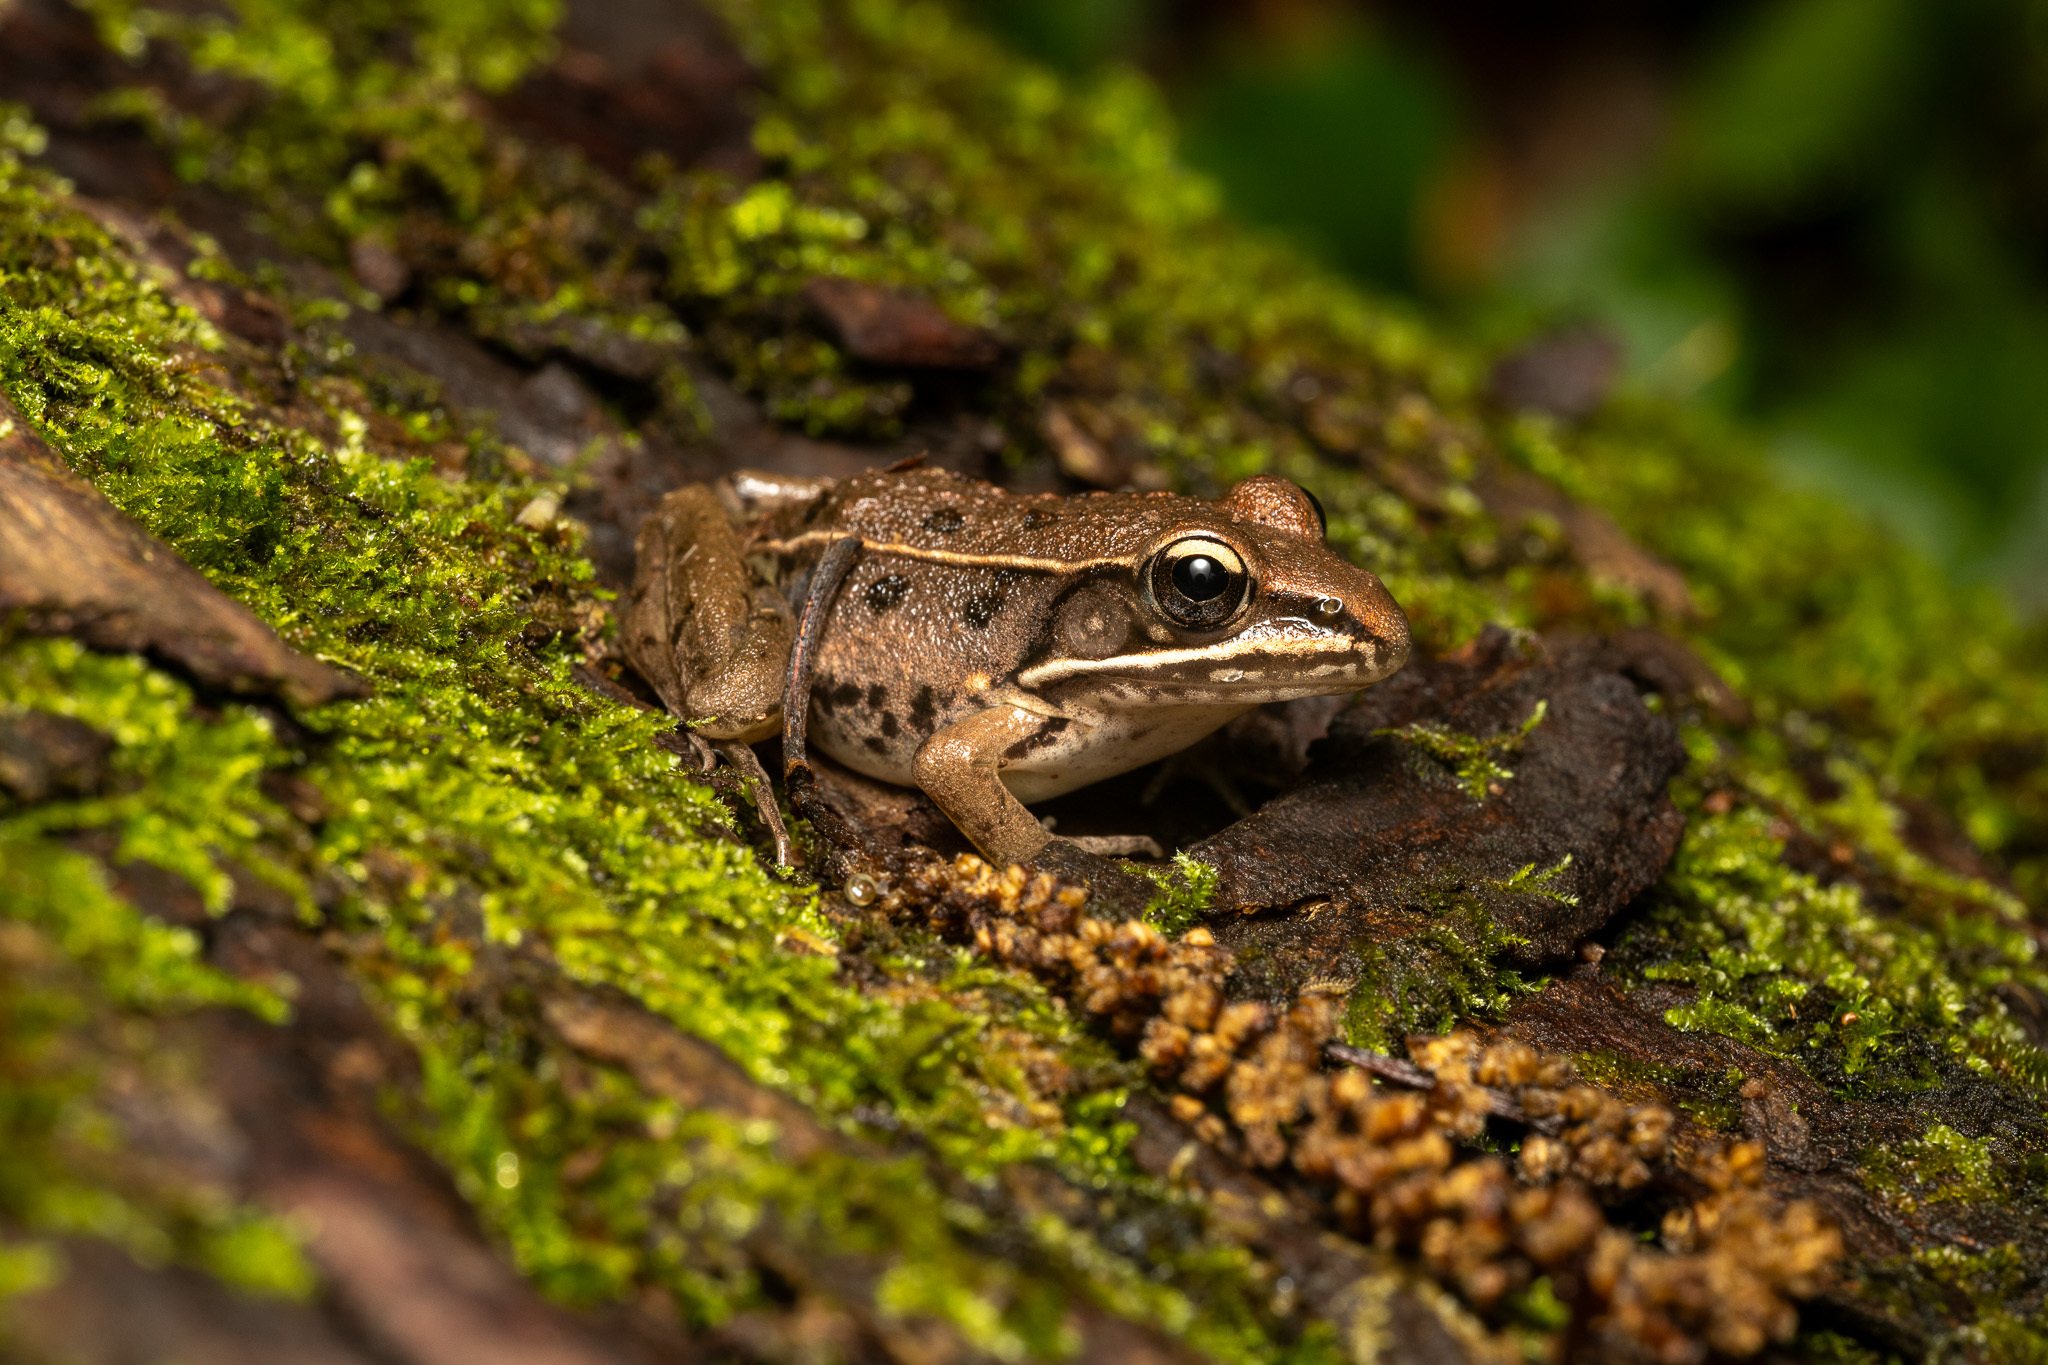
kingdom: Animalia
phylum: Chordata
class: Amphibia
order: Anura
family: Ranidae
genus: Lithobates
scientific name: Lithobates sphenocephalus
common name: Southern leopard frog
